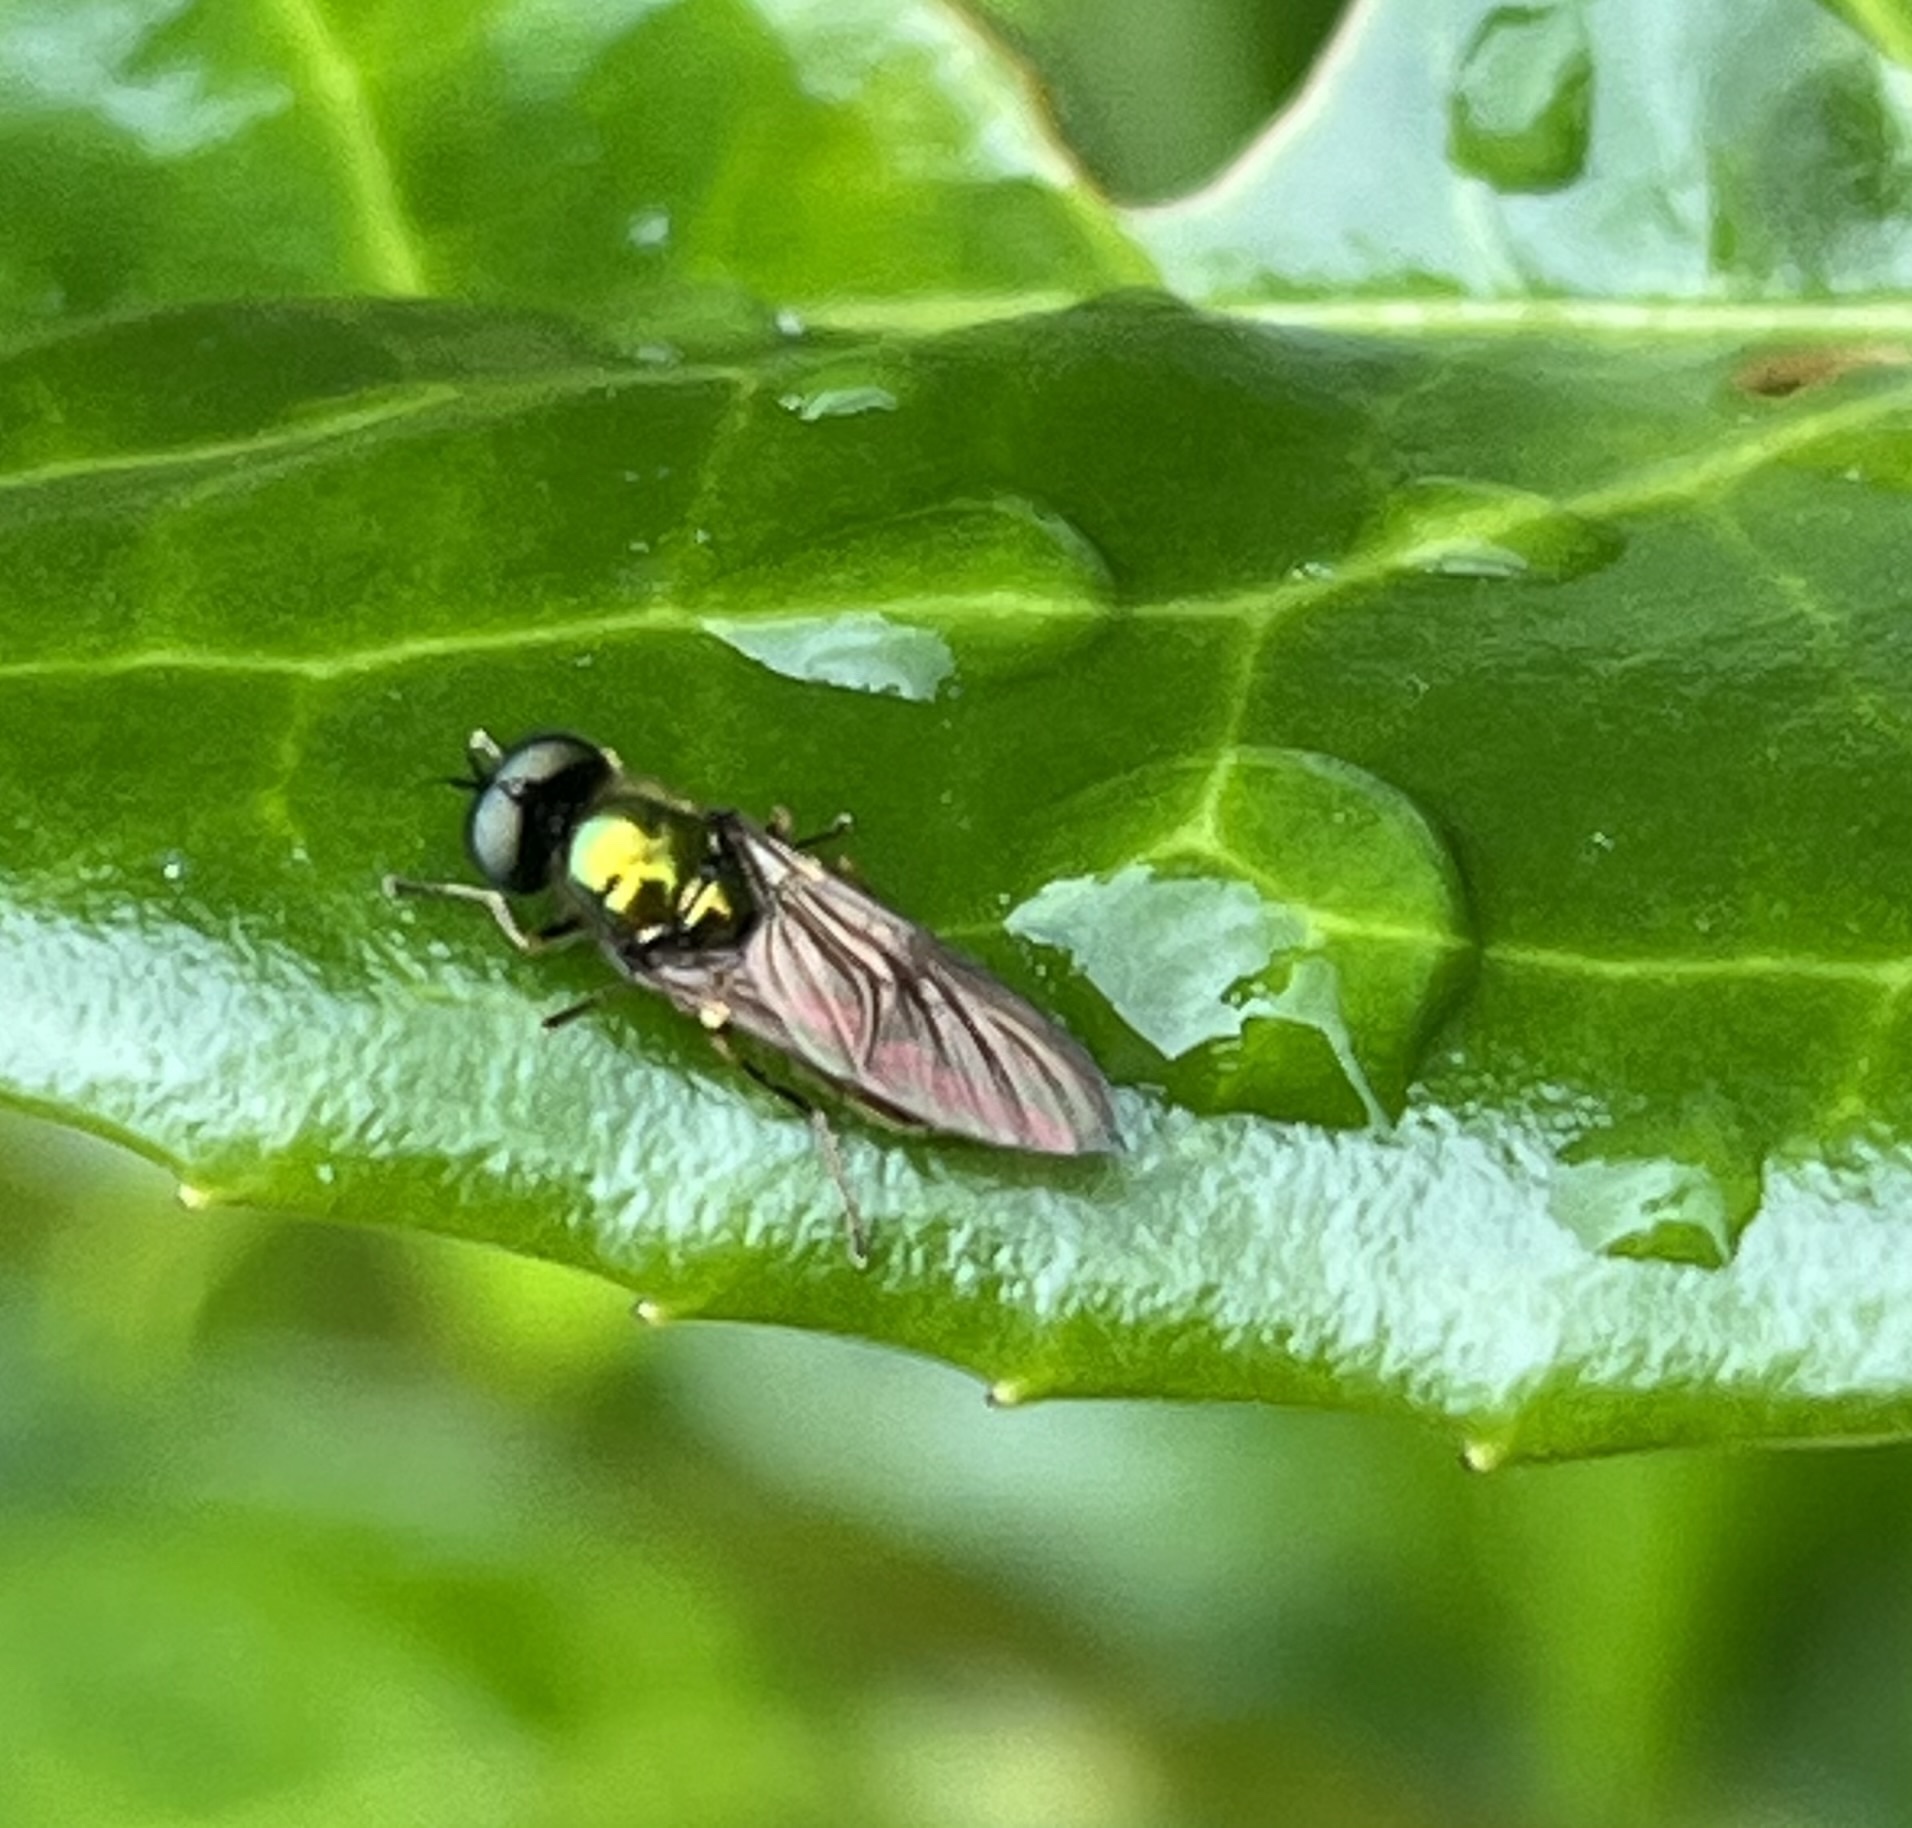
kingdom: Animalia
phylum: Arthropoda
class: Insecta
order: Diptera
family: Stratiomyidae
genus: Chloromyia
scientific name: Chloromyia formosa
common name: Soldier fly
